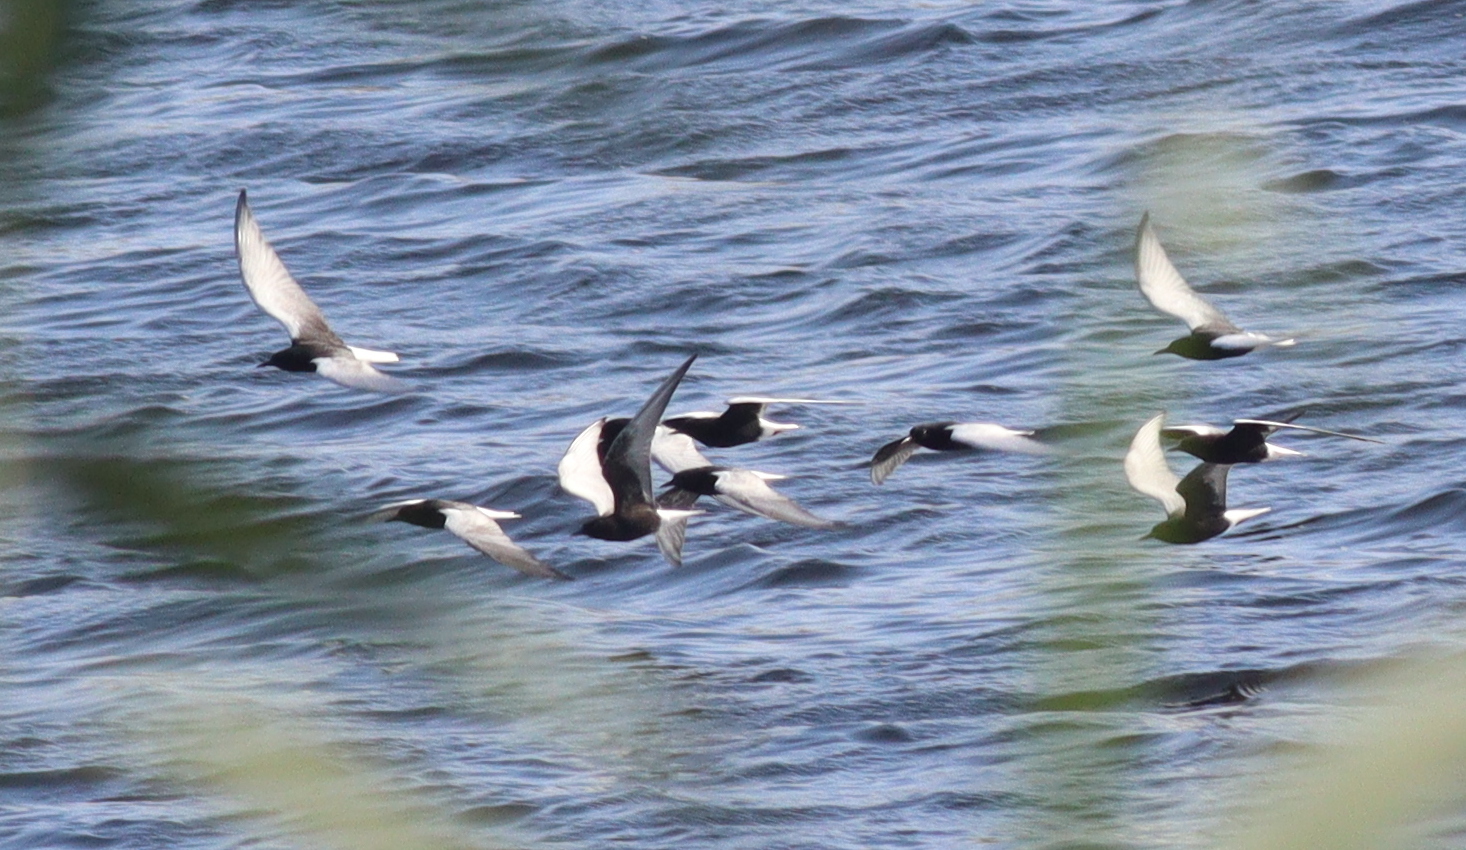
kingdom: Animalia
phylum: Chordata
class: Aves
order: Charadriiformes
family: Laridae
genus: Chlidonias
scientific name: Chlidonias leucopterus
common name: White-winged tern
